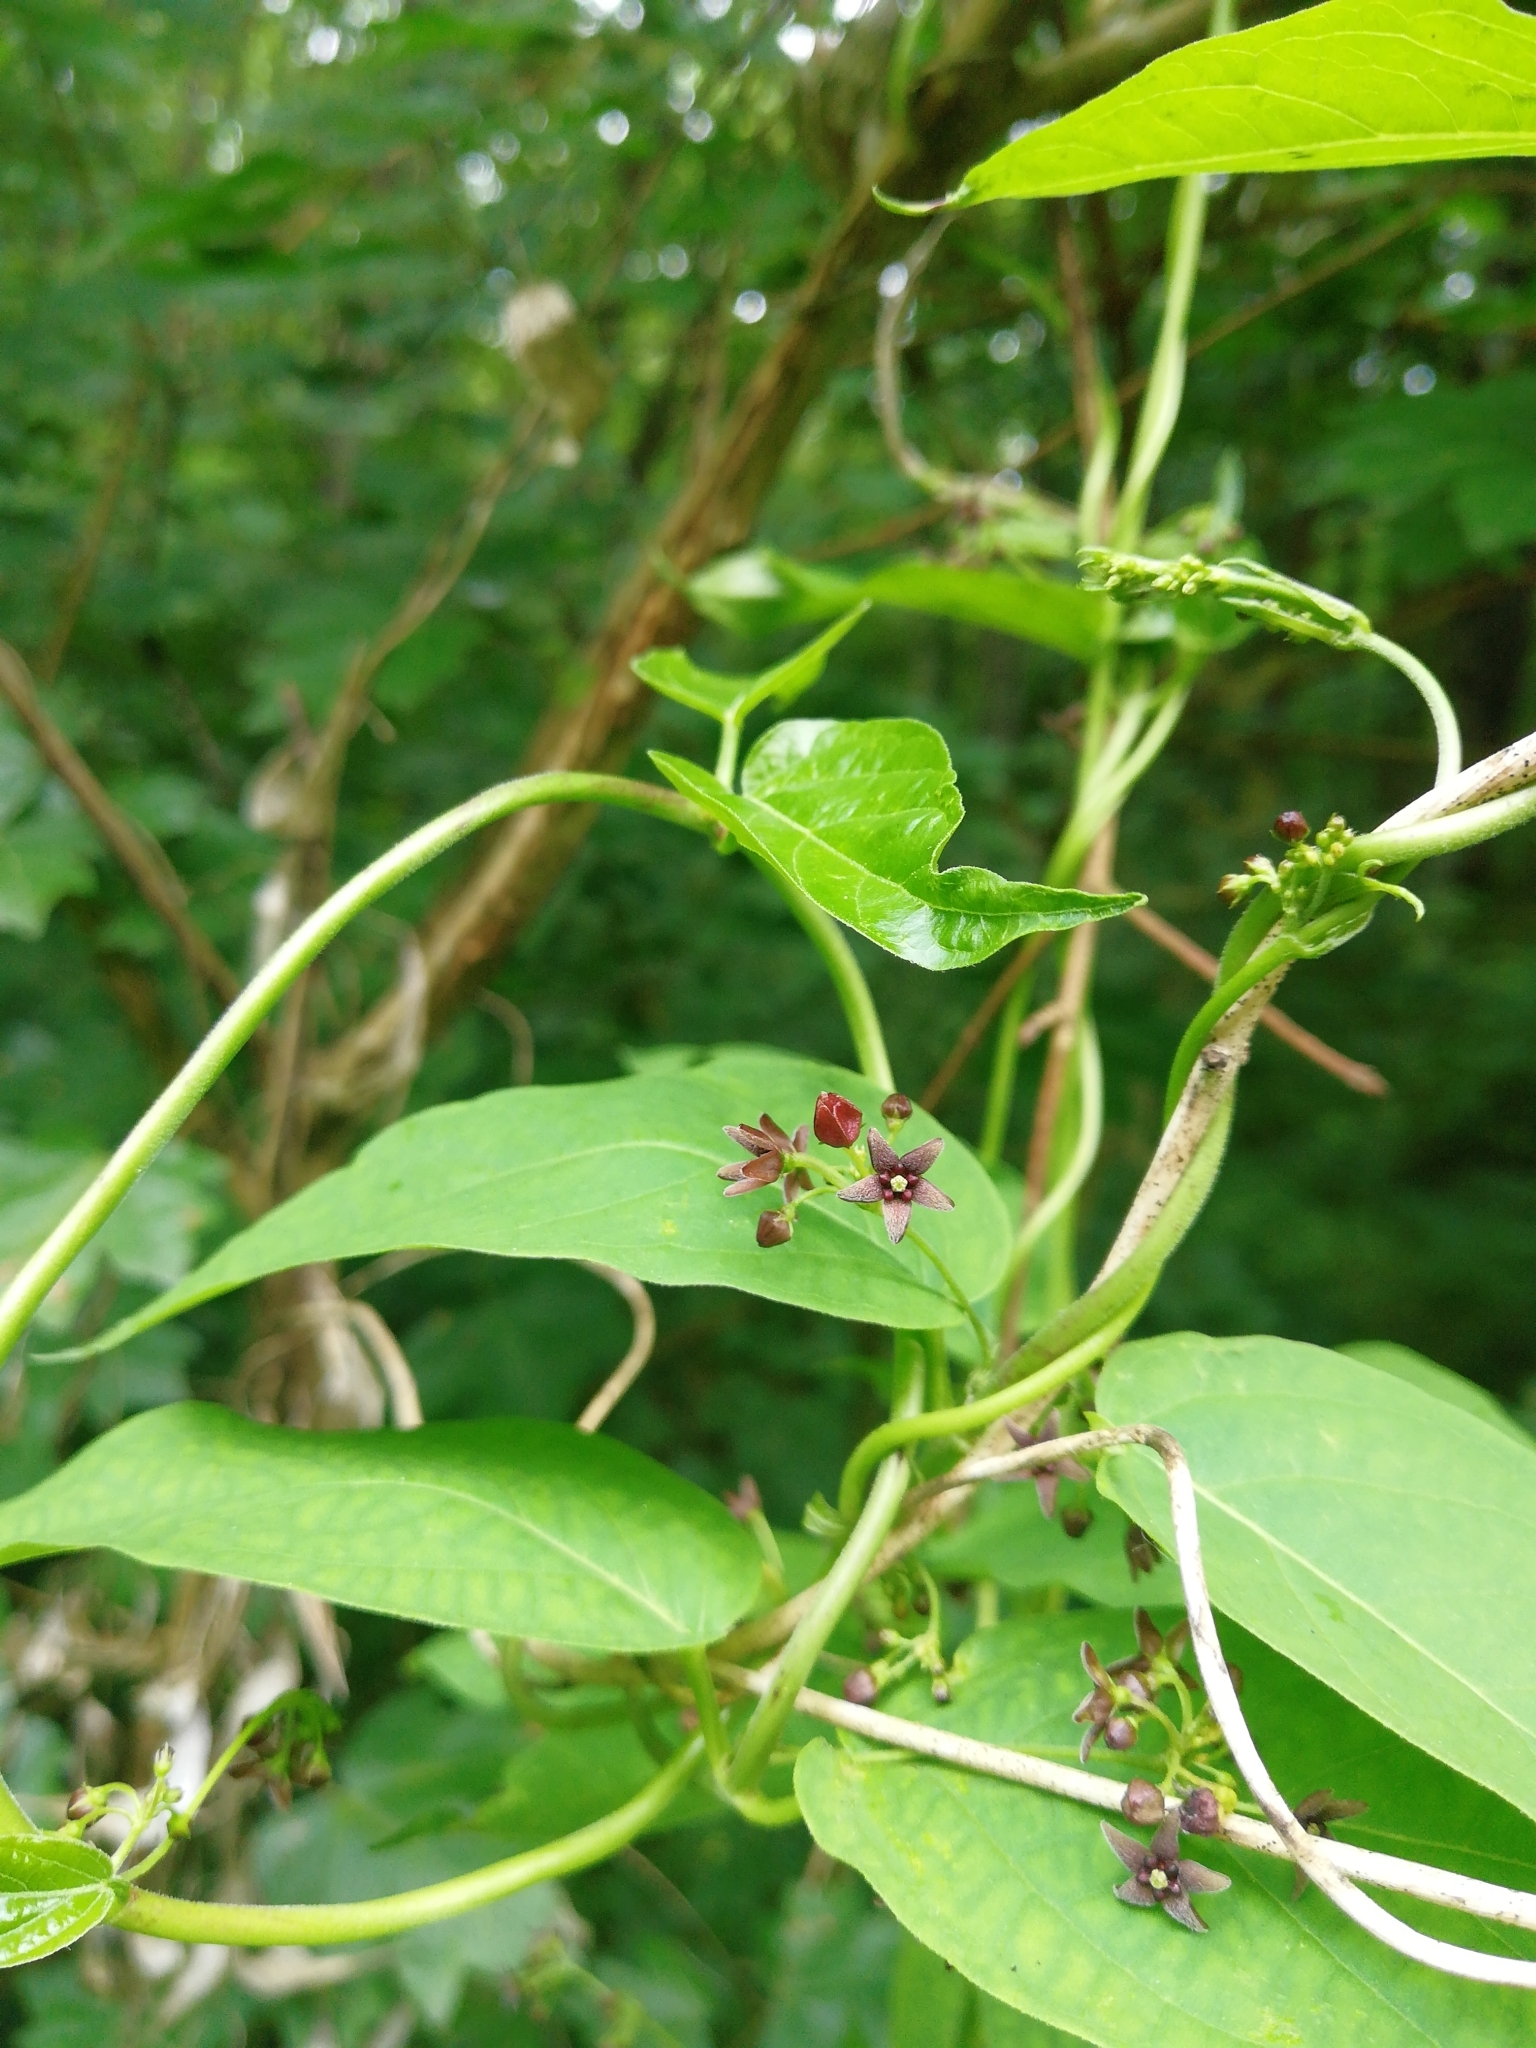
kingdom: Plantae
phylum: Tracheophyta
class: Magnoliopsida
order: Gentianales
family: Apocynaceae
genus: Vincetoxicum
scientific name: Vincetoxicum scandens
